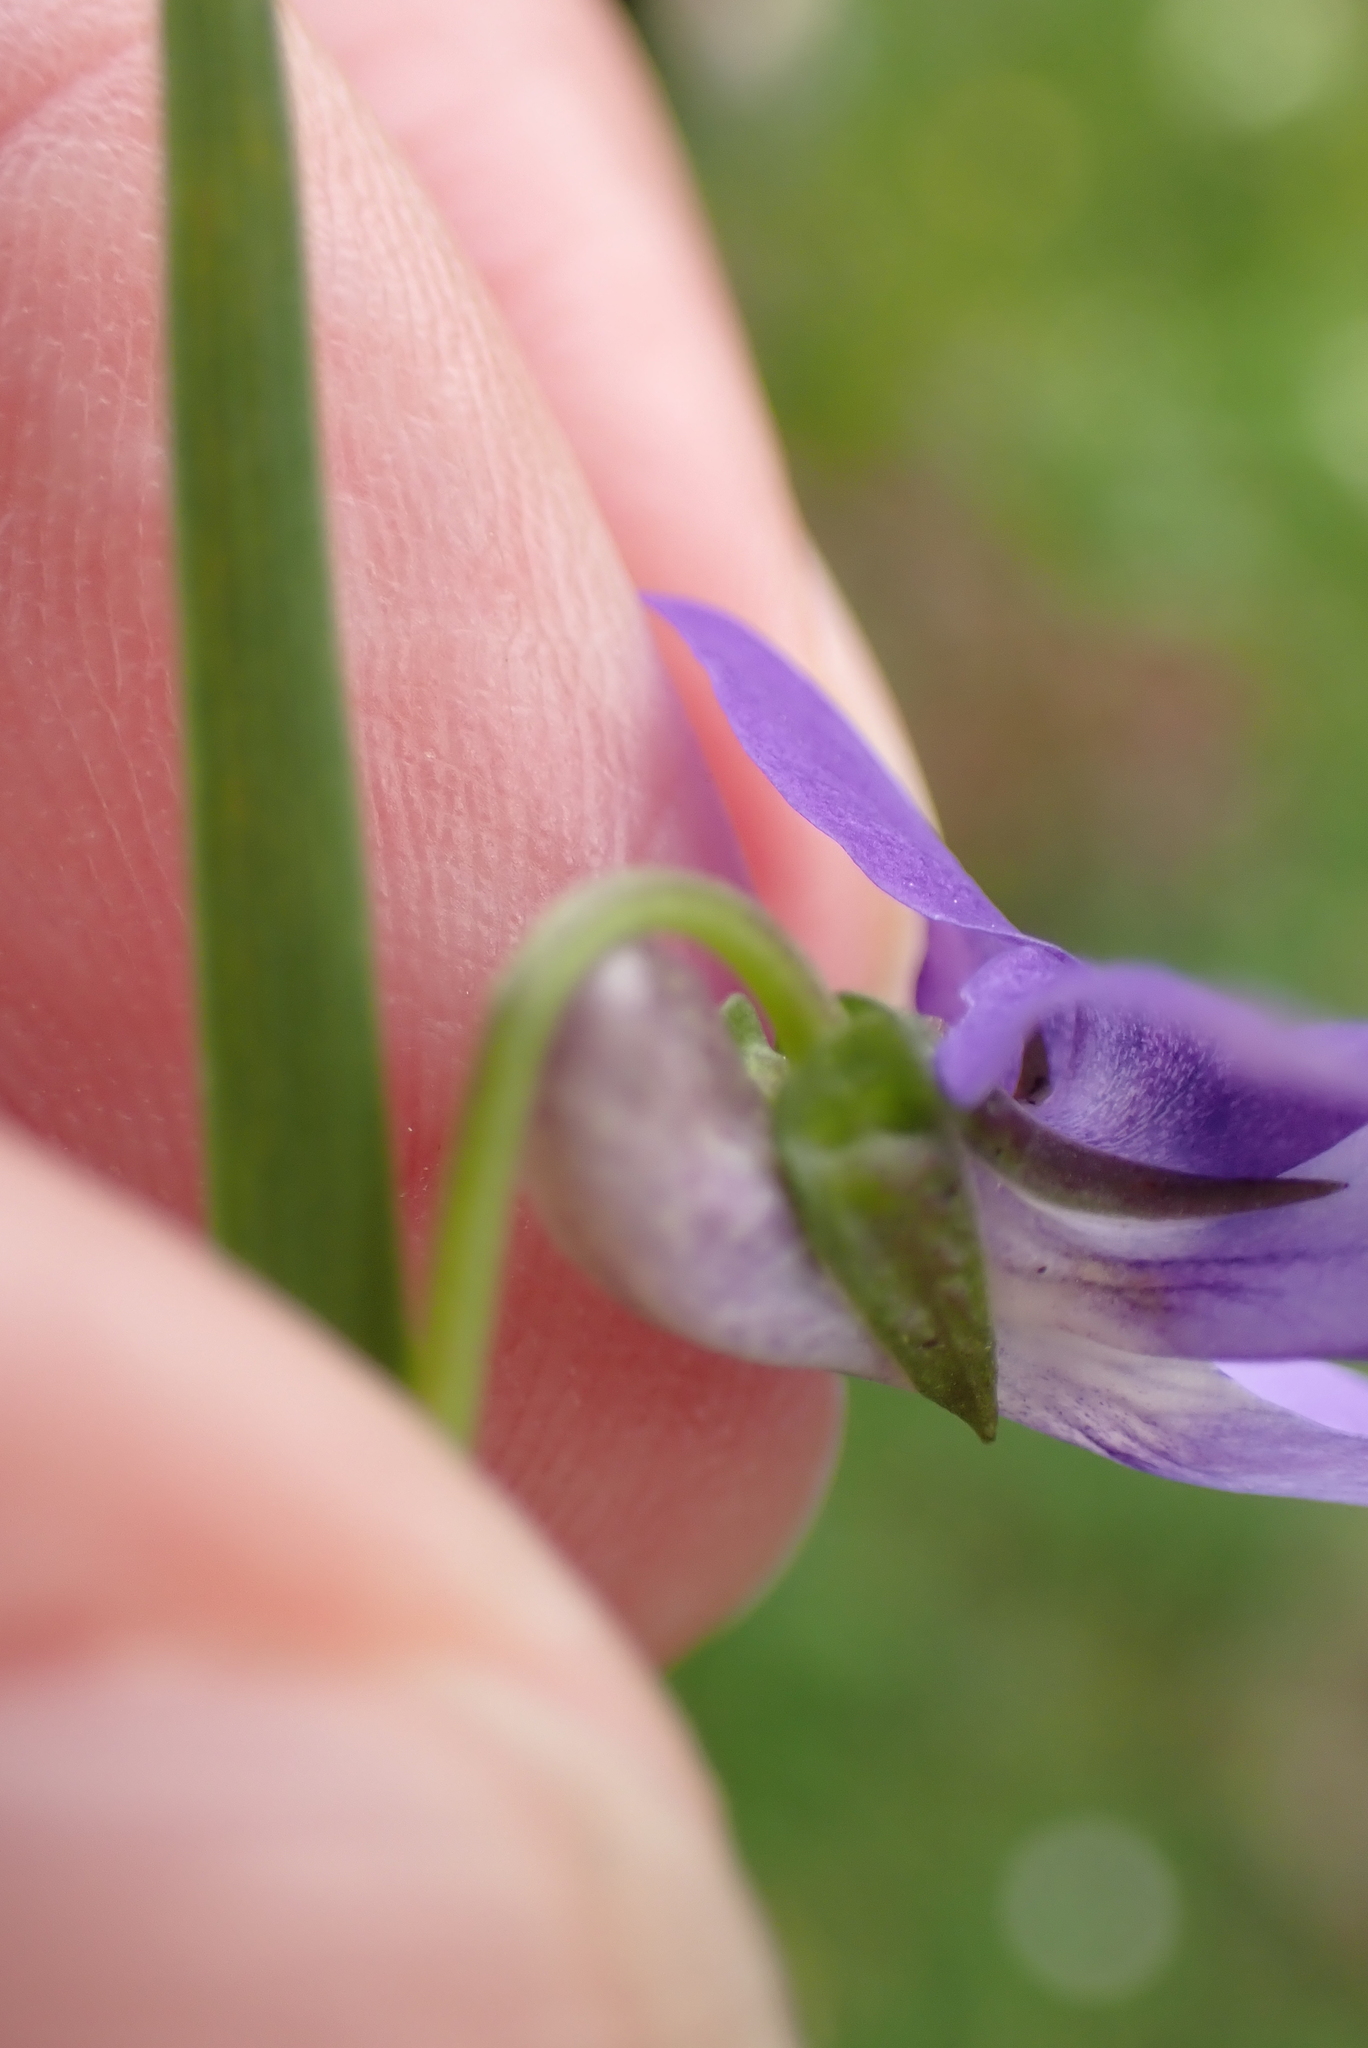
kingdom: Plantae
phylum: Tracheophyta
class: Magnoliopsida
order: Malpighiales
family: Violaceae
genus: Viola
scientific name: Viola riviniana
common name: Common dog-violet
